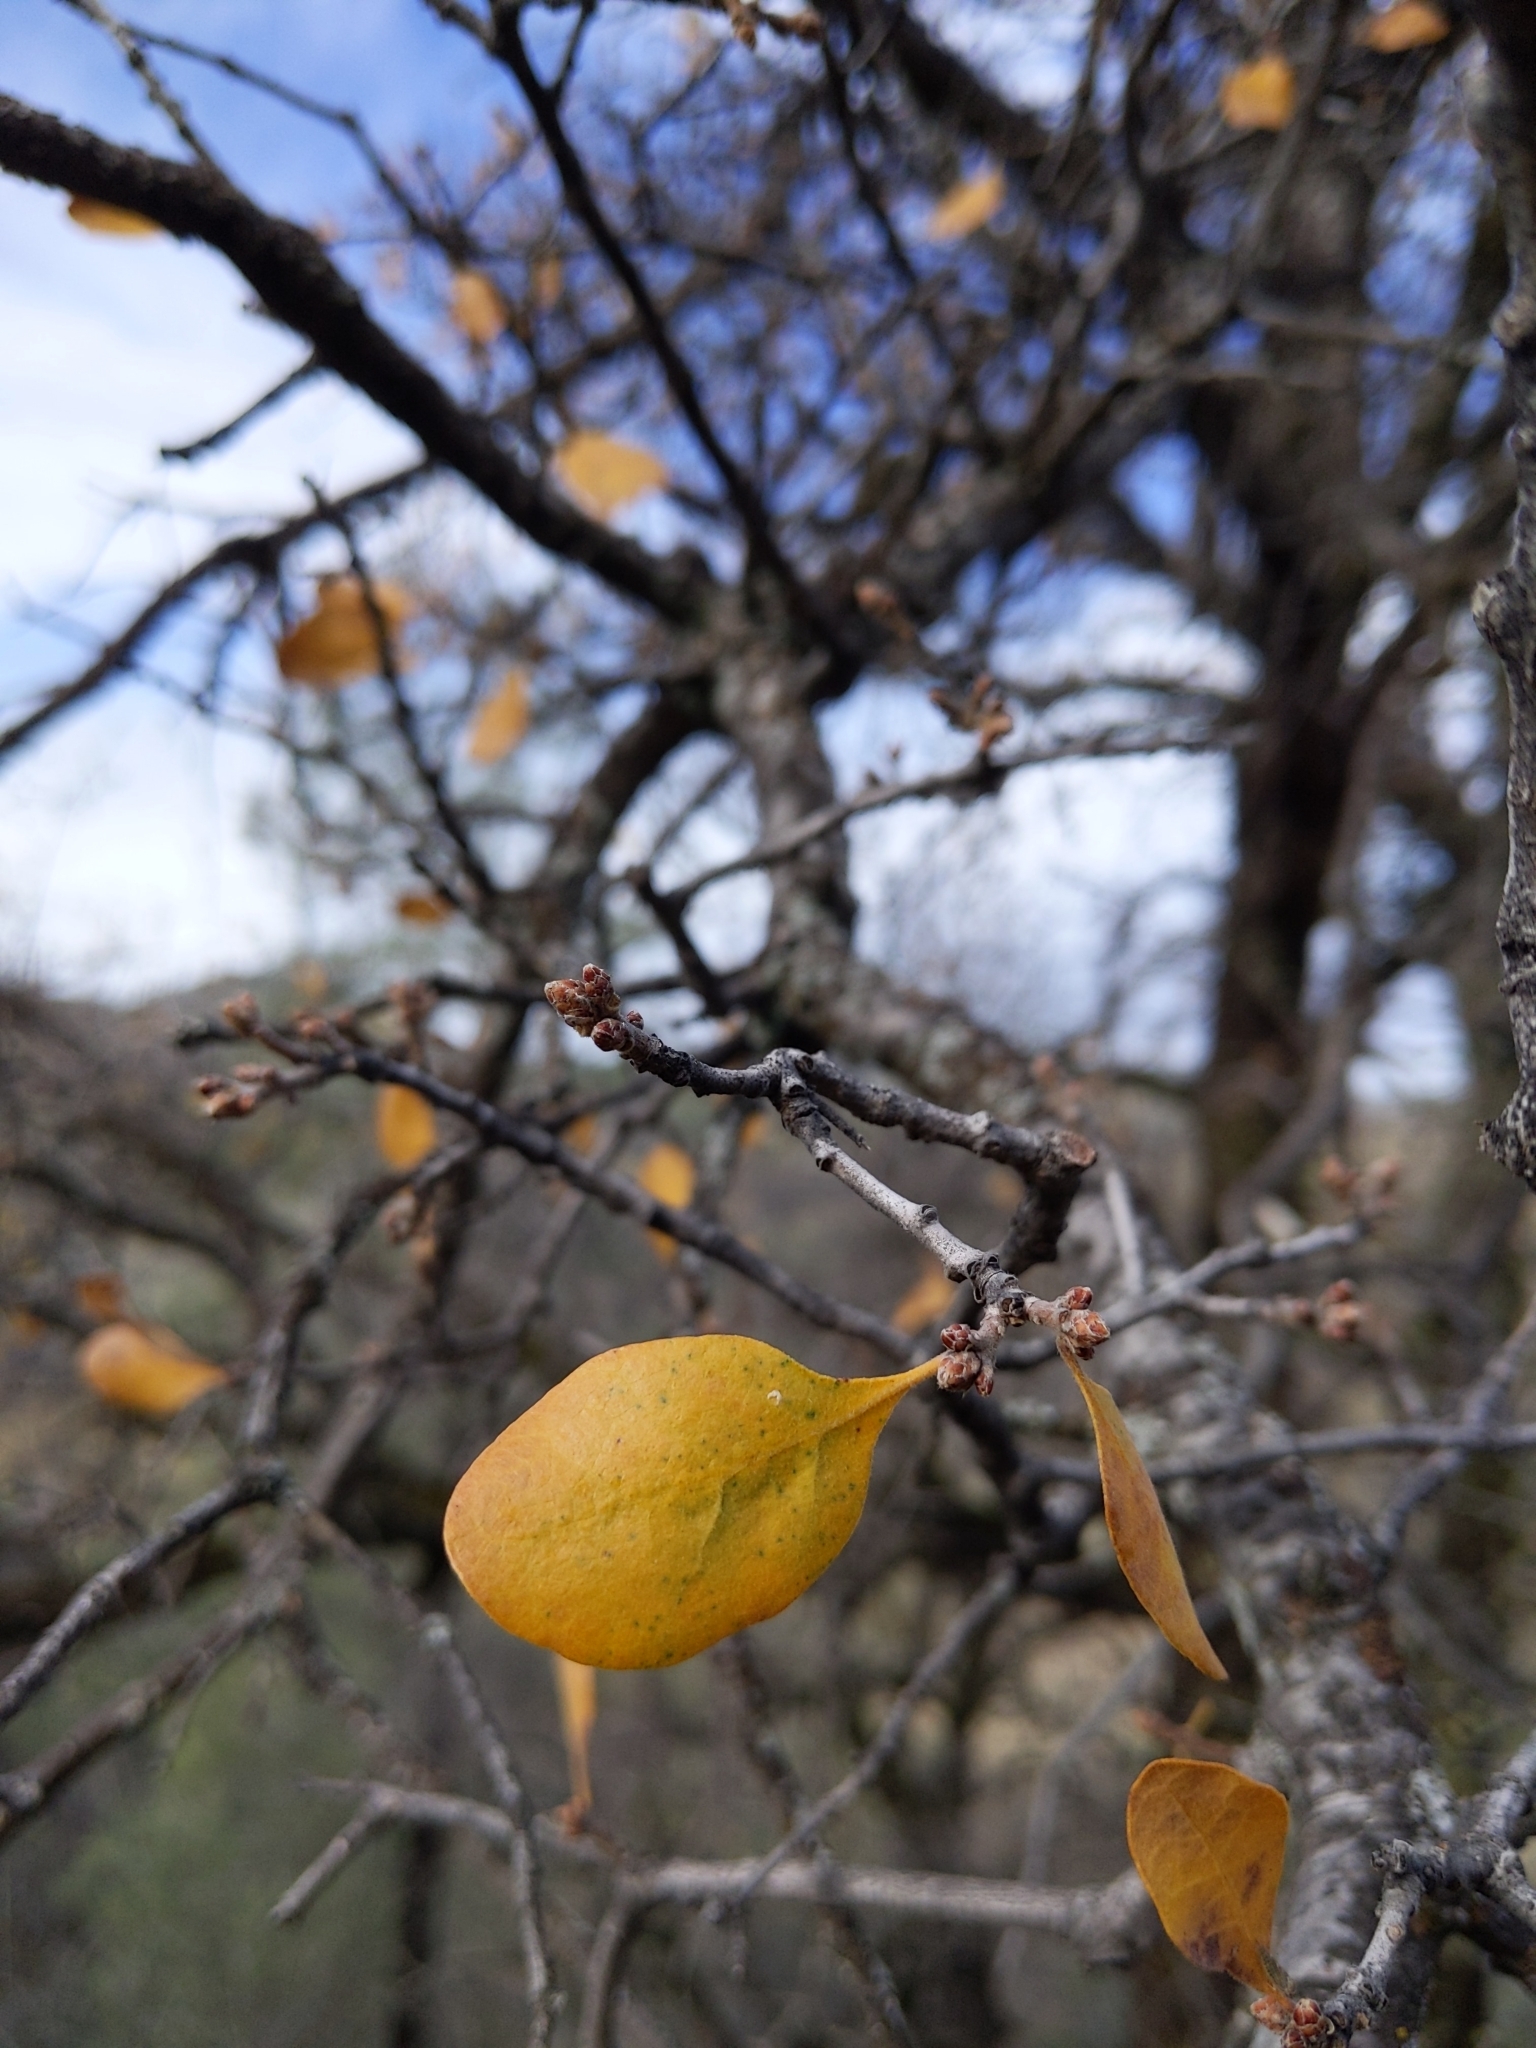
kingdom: Plantae
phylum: Tracheophyta
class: Magnoliopsida
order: Fagales
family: Fagaceae
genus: Quercus
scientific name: Quercus douglasii
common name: Blue oak
